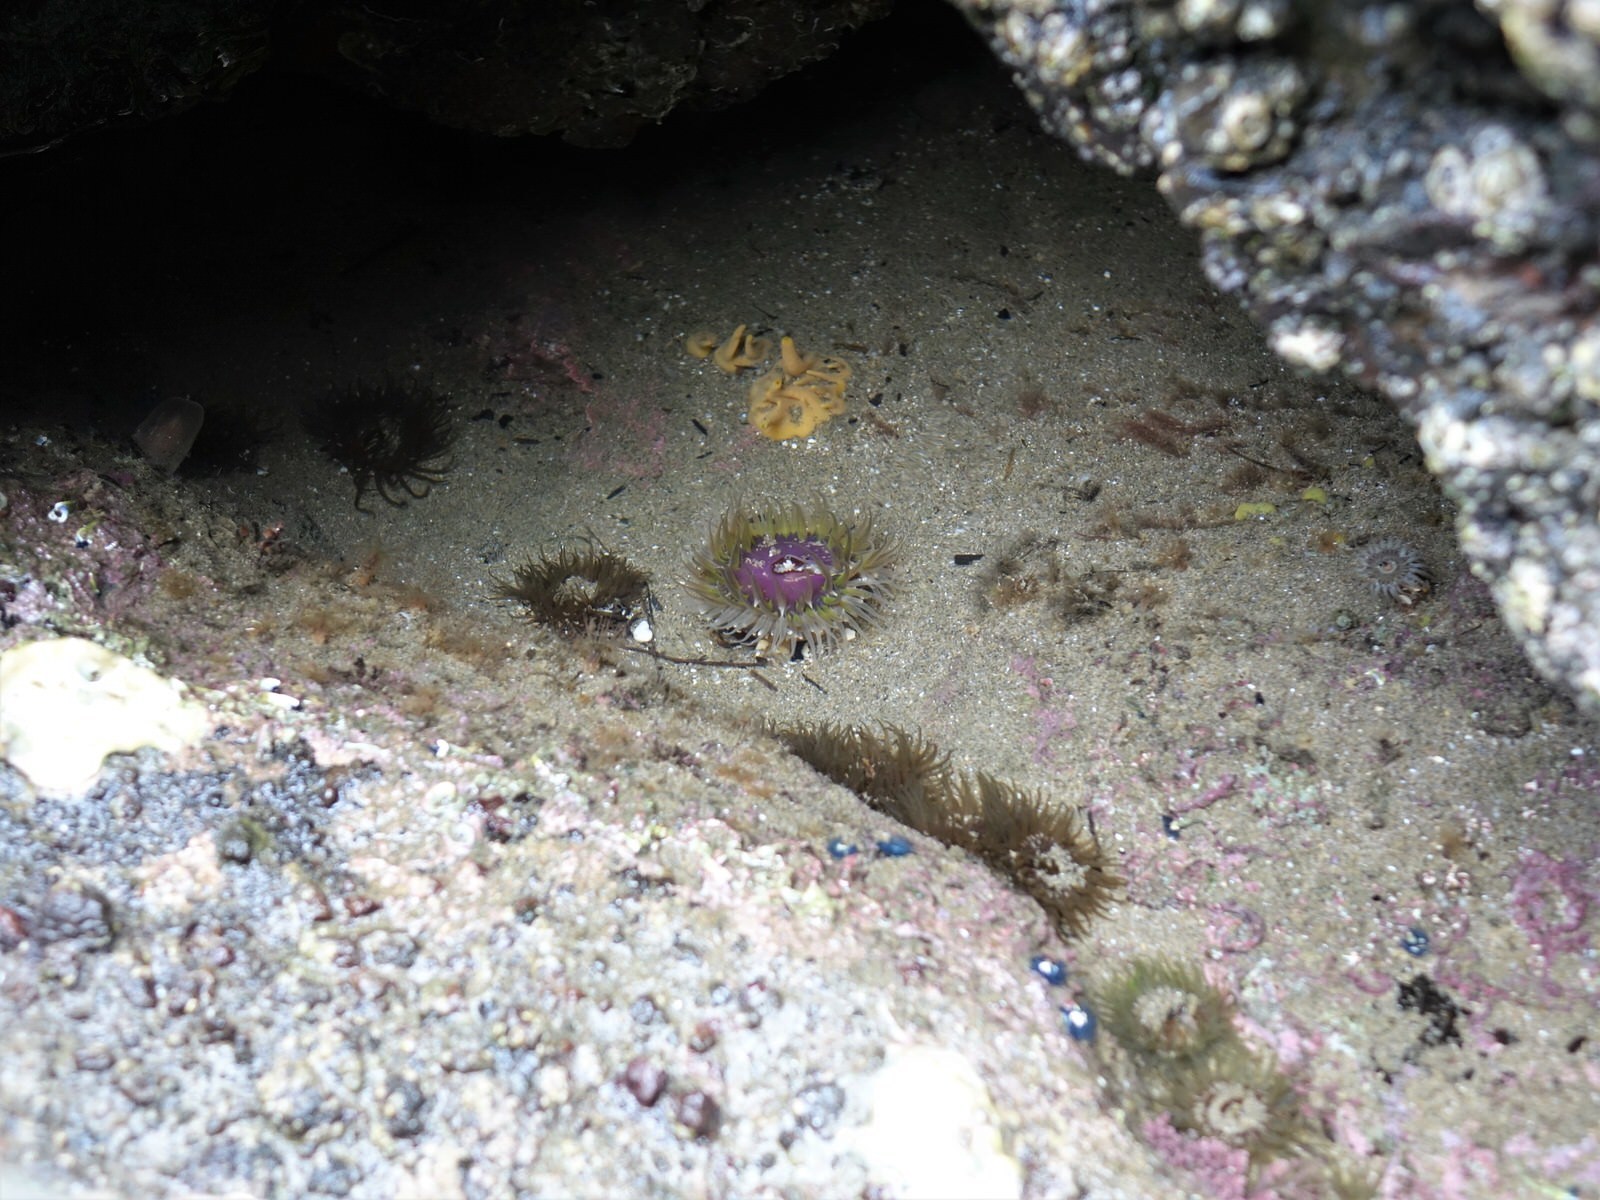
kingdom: Animalia
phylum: Cnidaria
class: Anthozoa
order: Actiniaria
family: Actiniidae
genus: Oulactis
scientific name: Oulactis magna
